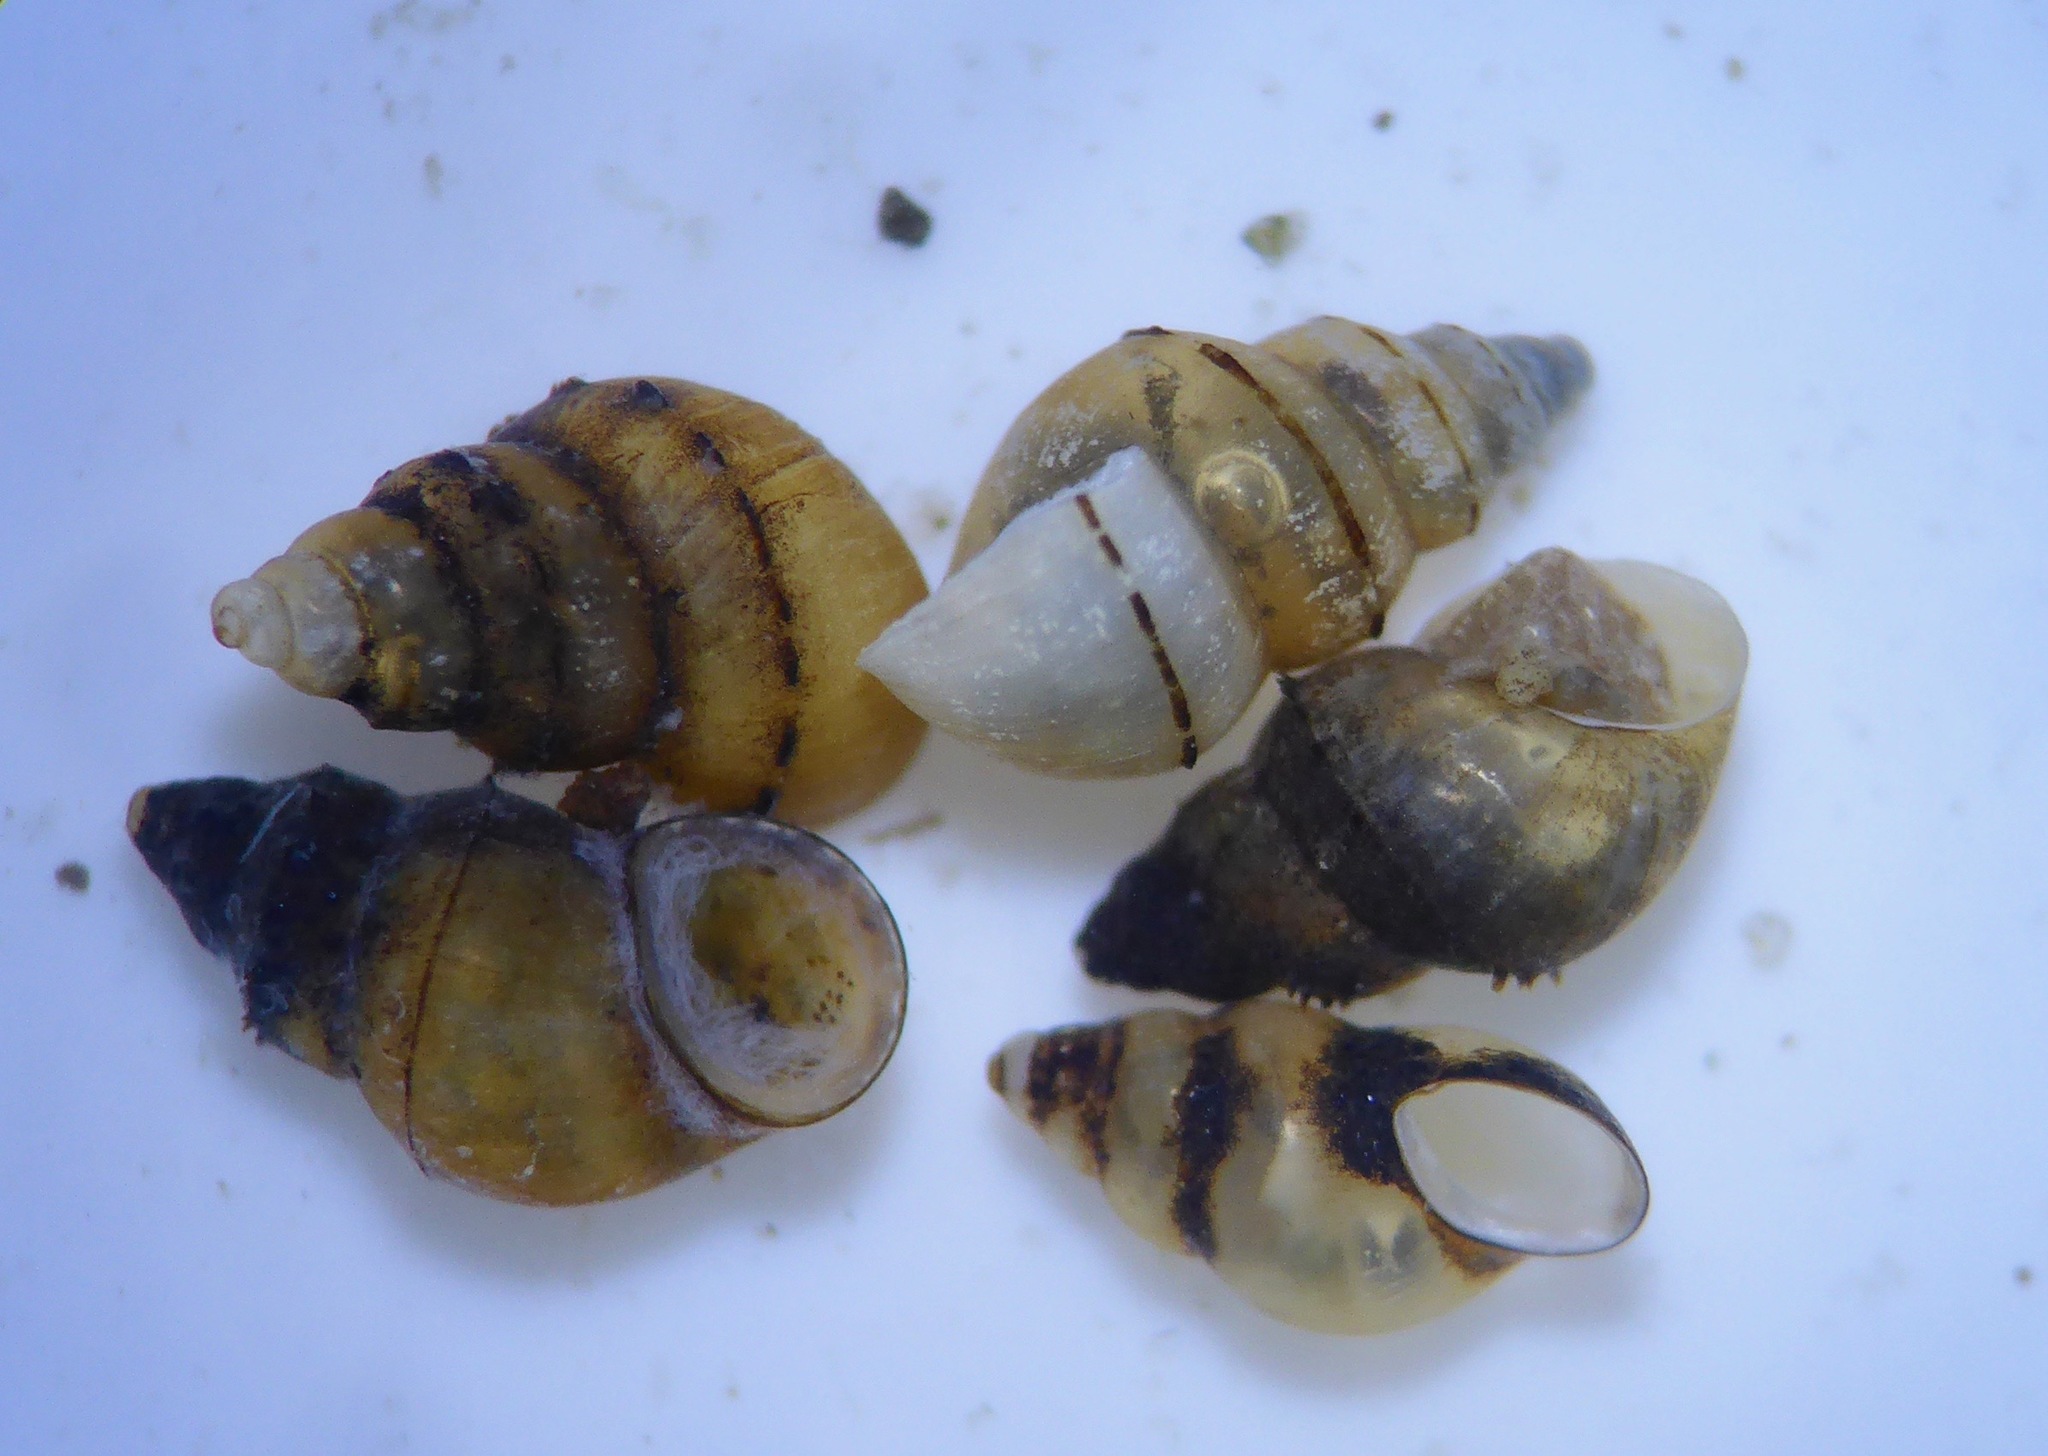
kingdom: Animalia
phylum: Mollusca
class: Gastropoda
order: Littorinimorpha
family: Tateidae
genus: Potamopyrgus
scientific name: Potamopyrgus antipodarum
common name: Jenkins' spire snail
